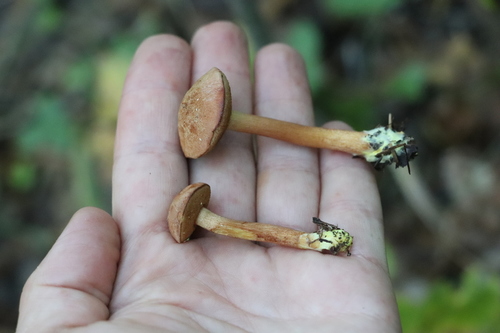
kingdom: Fungi
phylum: Basidiomycota
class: Agaricomycetes
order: Boletales
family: Boletaceae
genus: Chalciporus
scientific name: Chalciporus piperatus
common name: Peppery bolete
